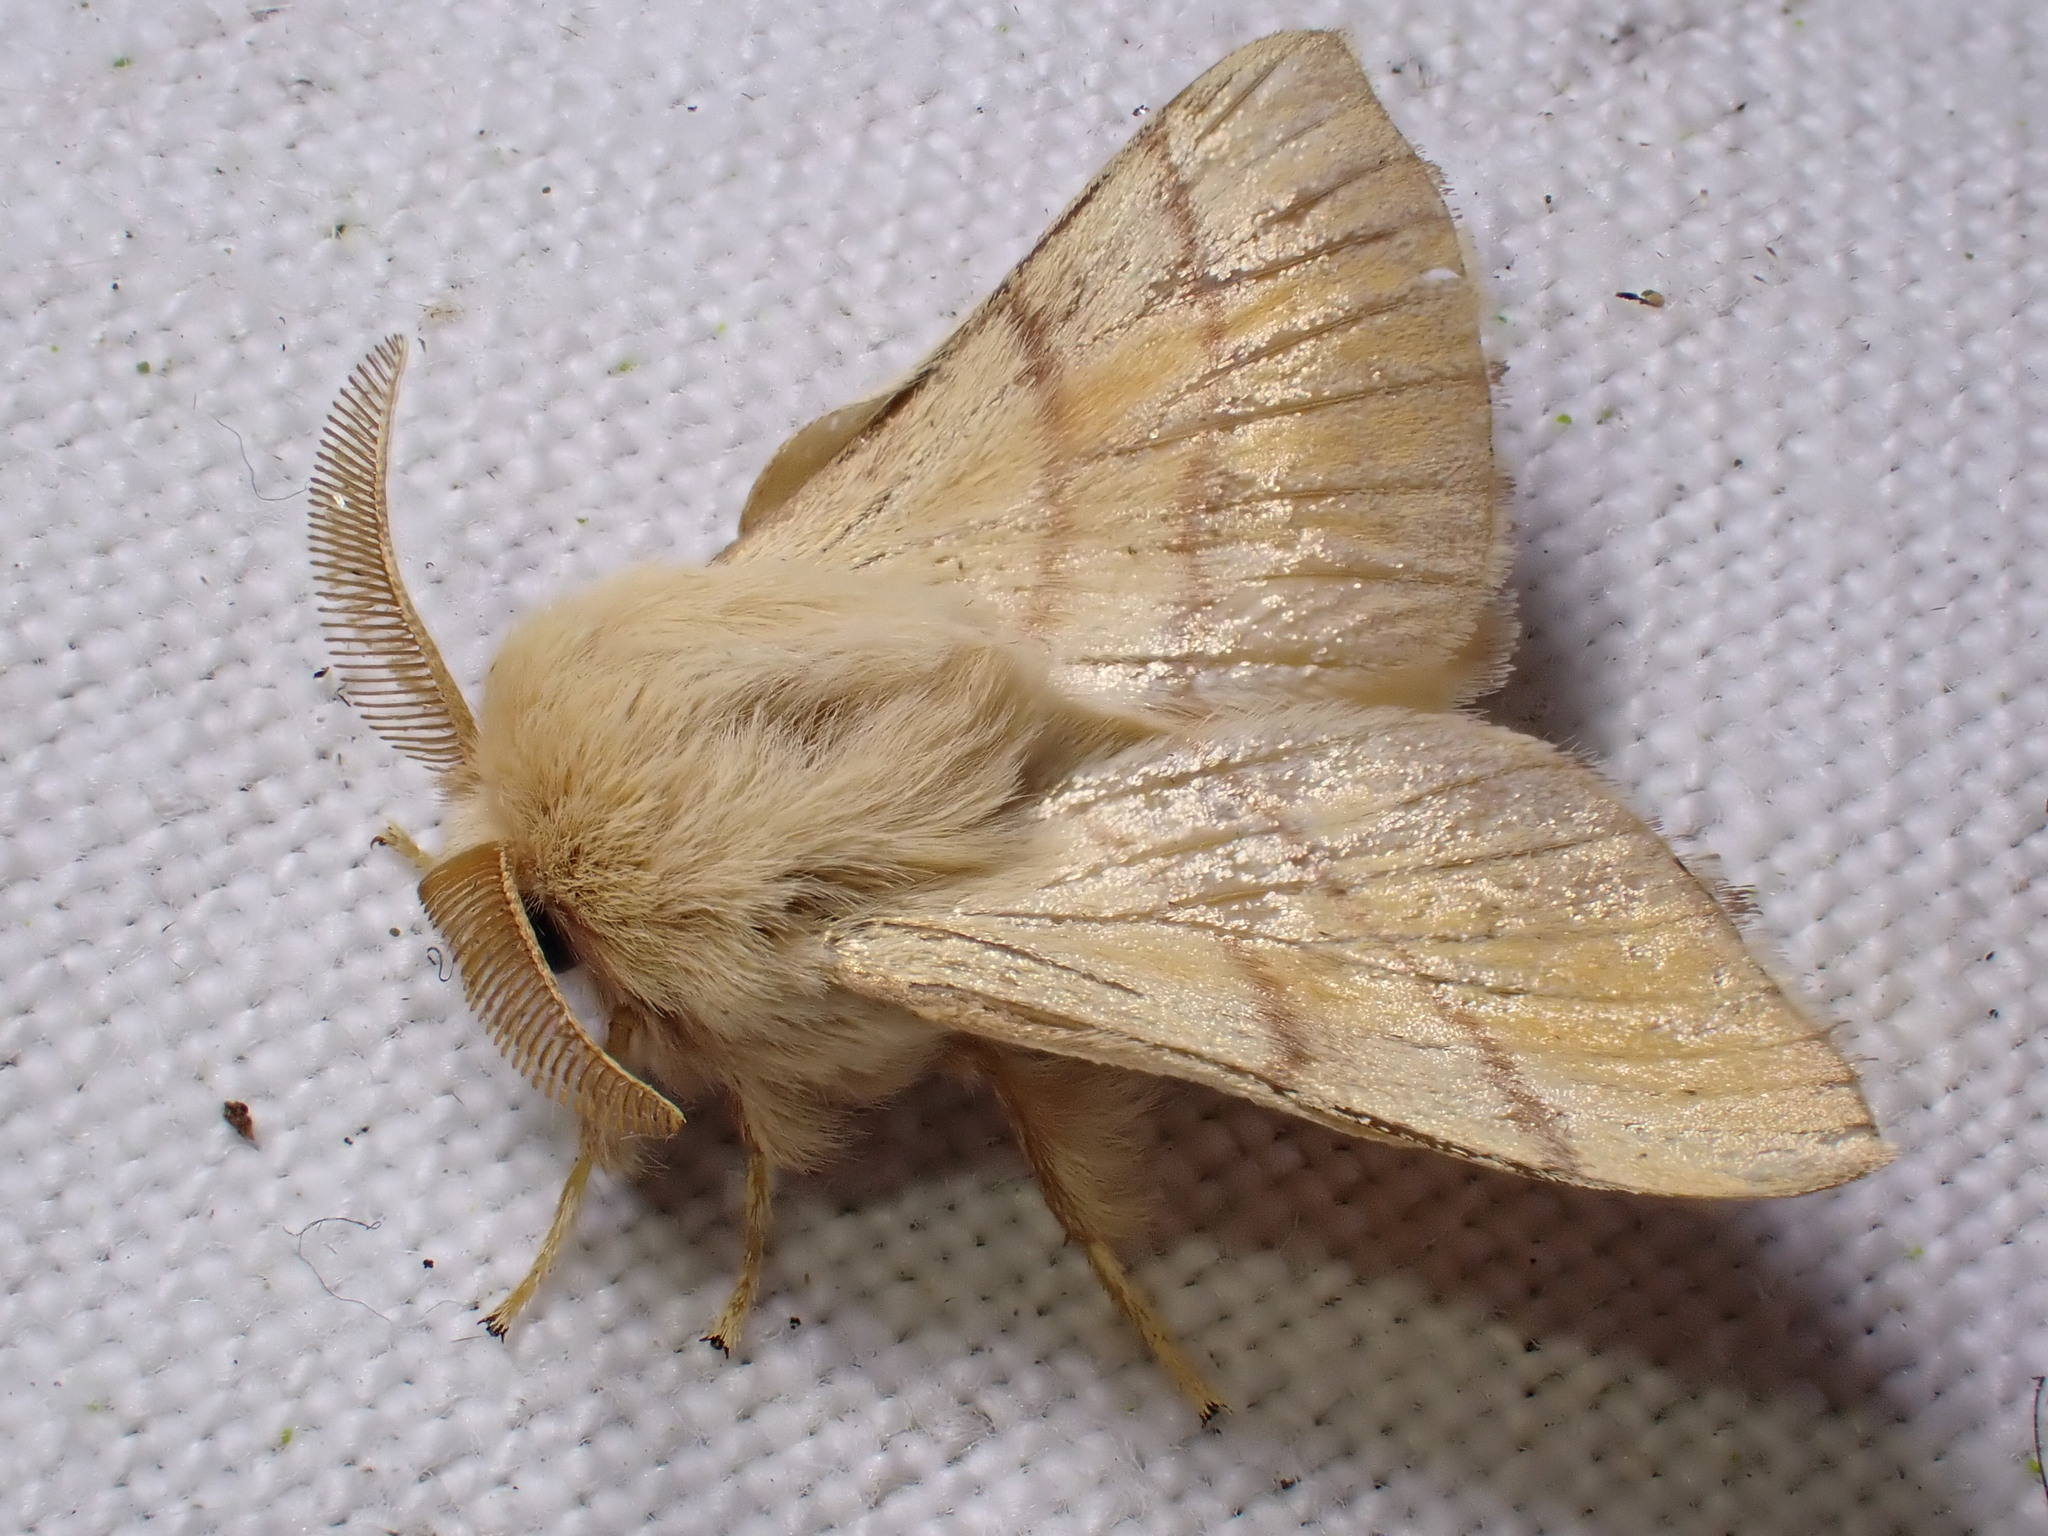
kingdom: Animalia
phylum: Arthropoda
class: Insecta
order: Lepidoptera
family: Lasiocampidae
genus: Malacosoma
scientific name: Malacosoma neustria
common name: The lackey
